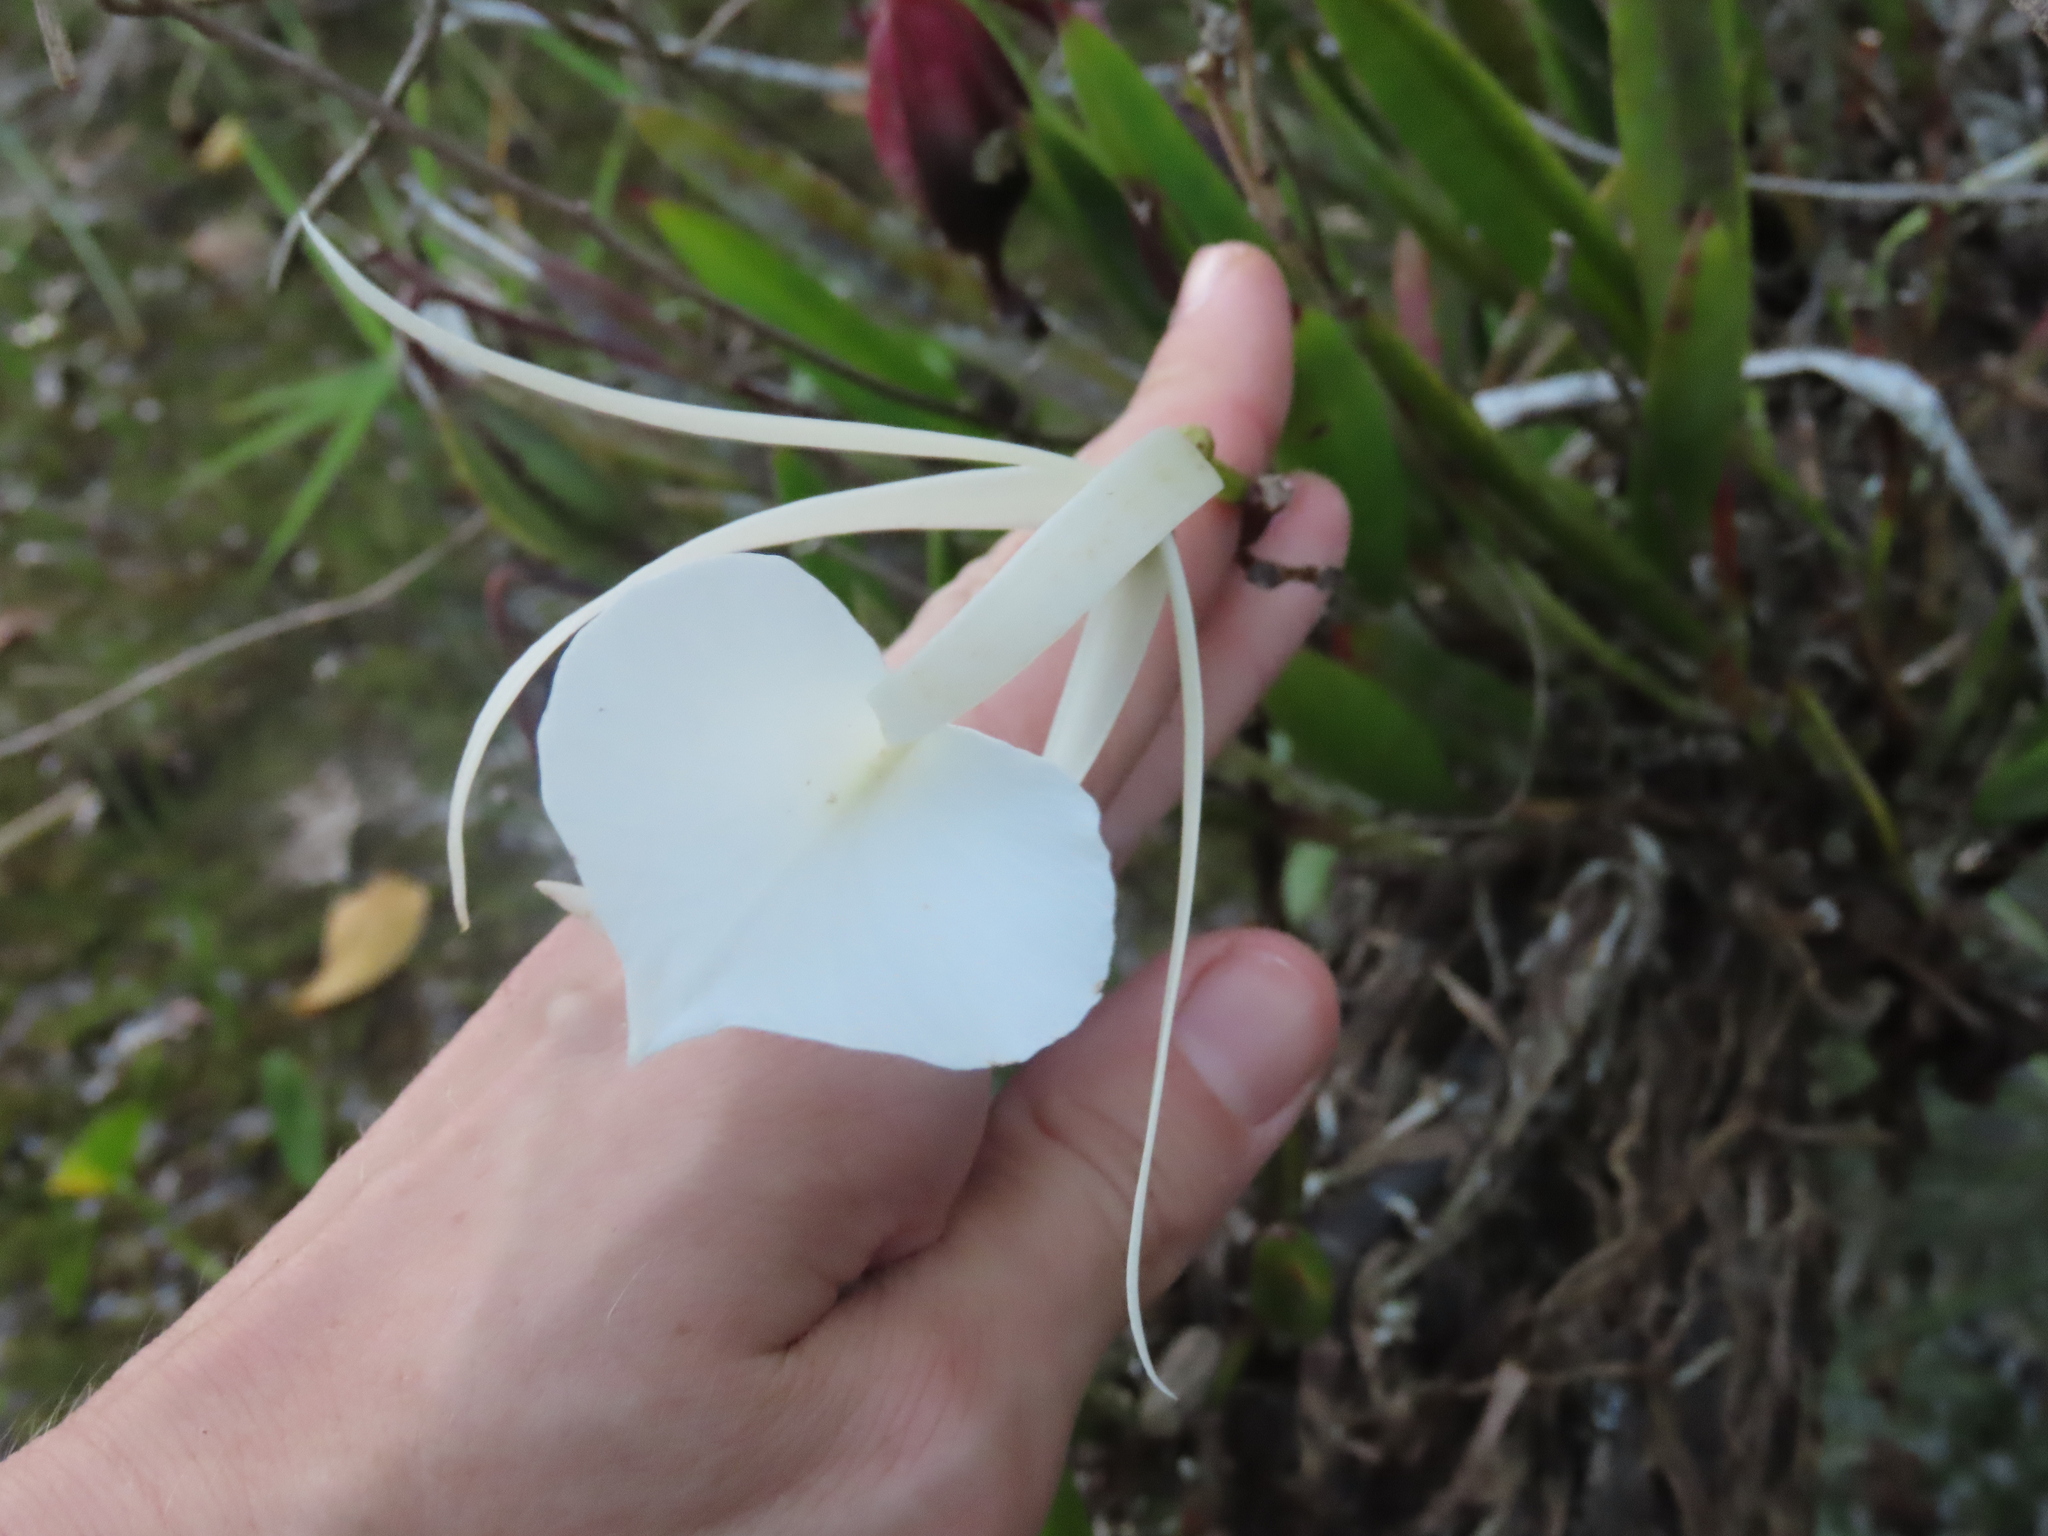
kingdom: Plantae
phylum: Tracheophyta
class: Liliopsida
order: Asparagales
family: Orchidaceae
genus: Brassavola
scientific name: Brassavola nodosa
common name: Lady of the night
